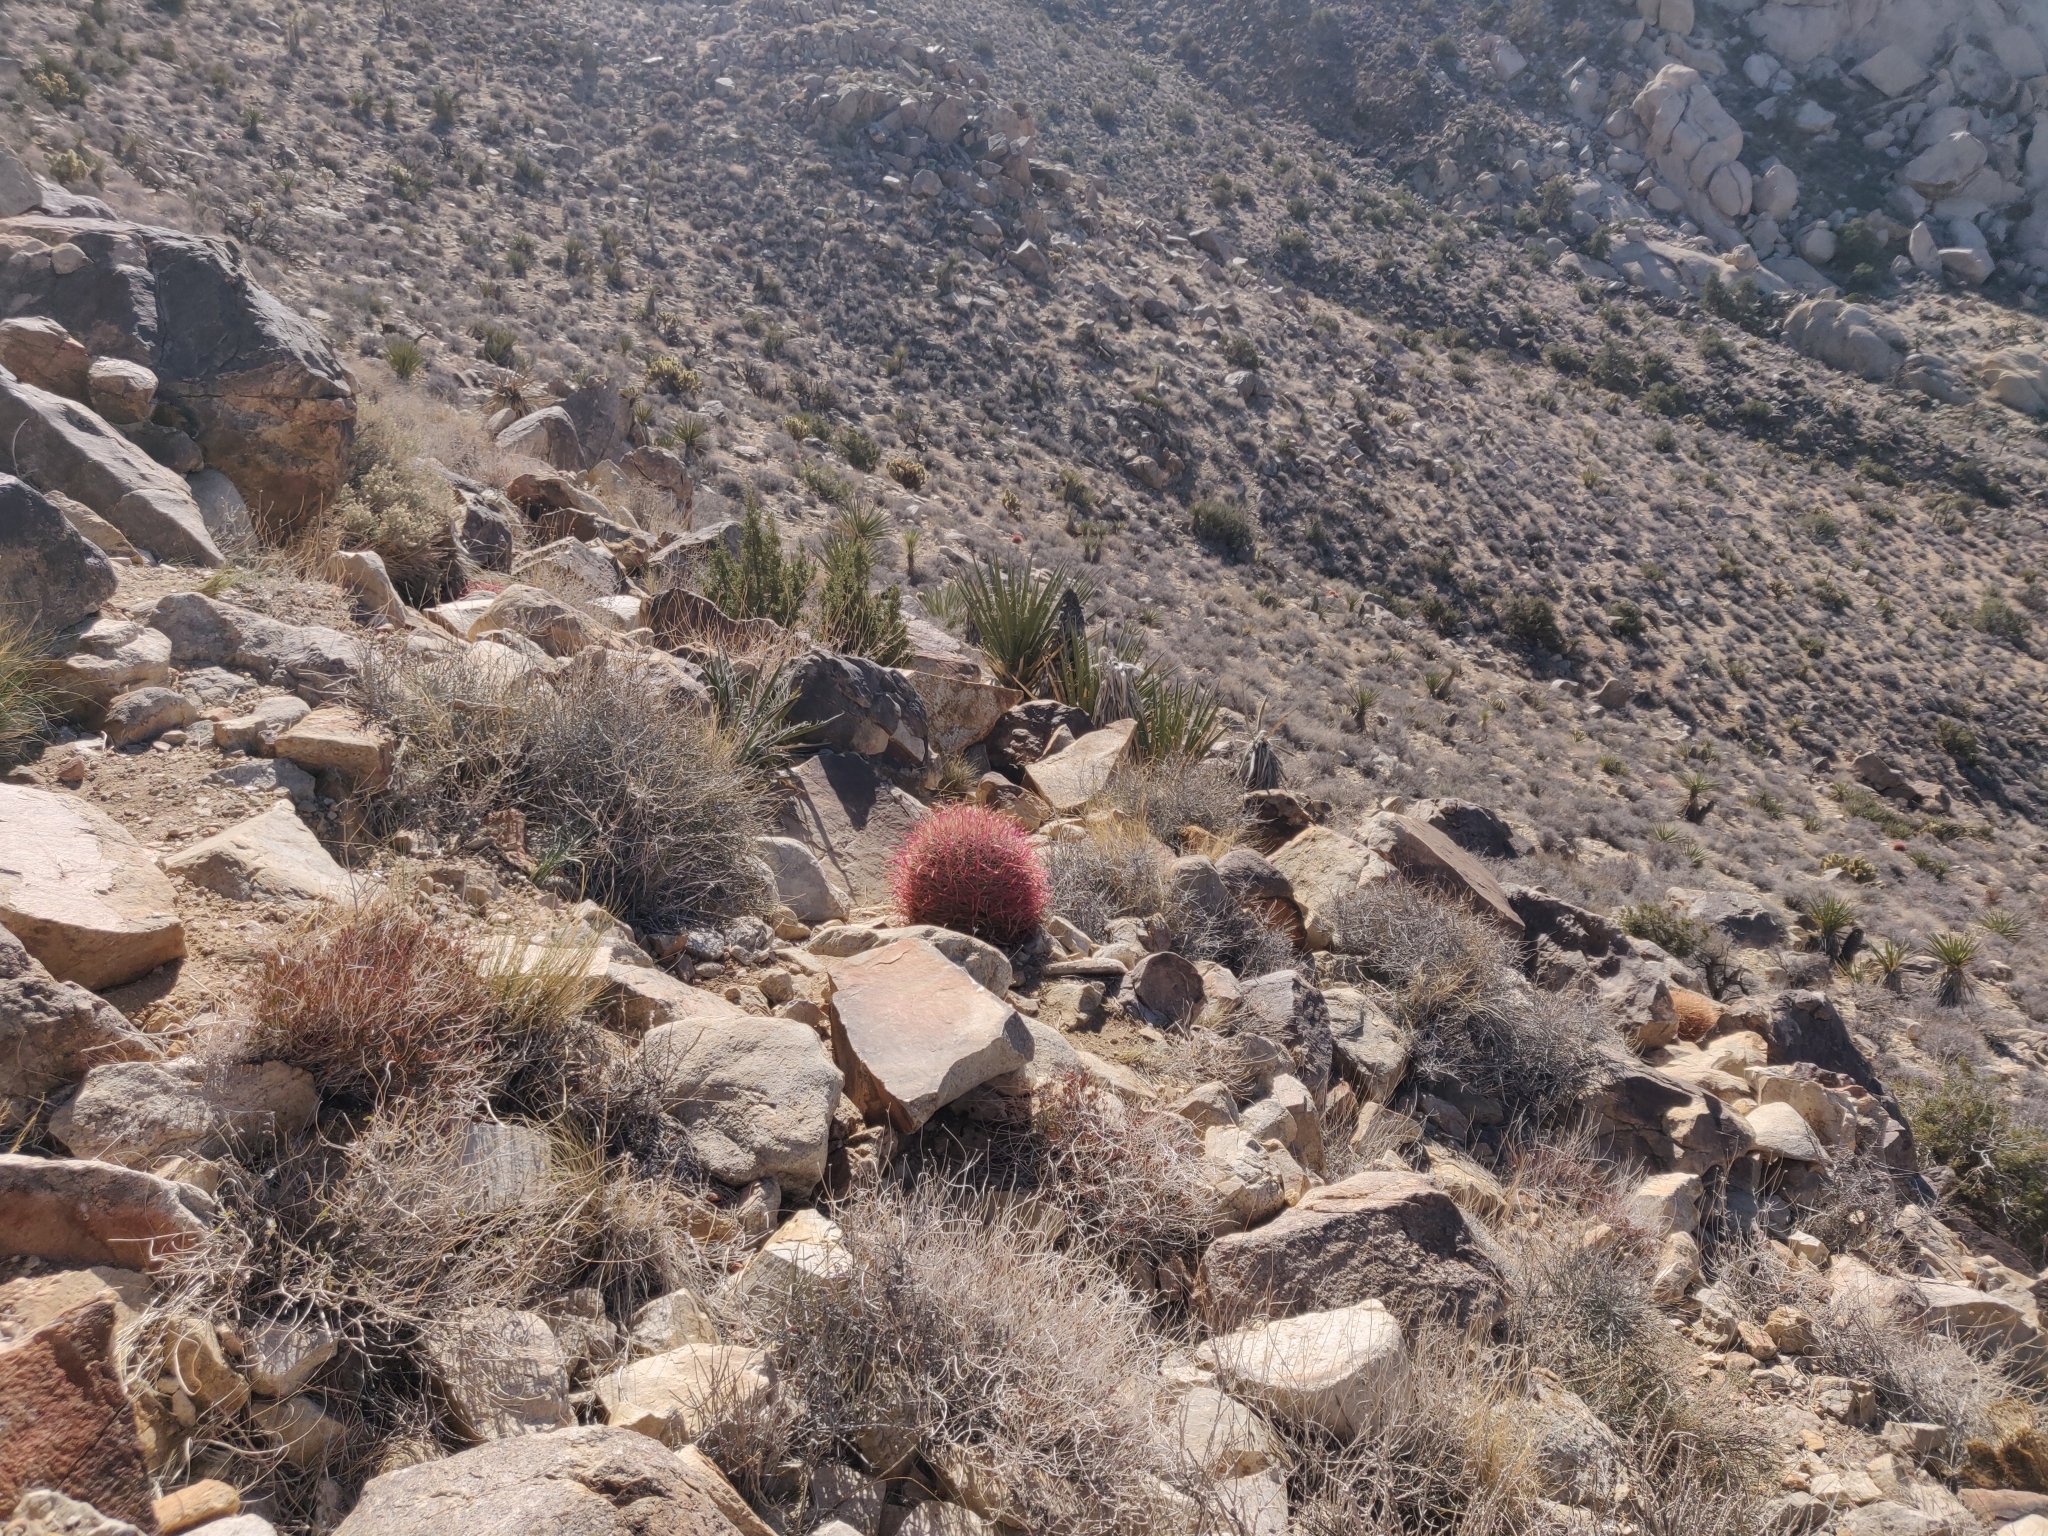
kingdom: Plantae
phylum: Tracheophyta
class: Magnoliopsida
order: Caryophyllales
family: Cactaceae
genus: Ferocactus
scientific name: Ferocactus cylindraceus
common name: California barrel cactus
